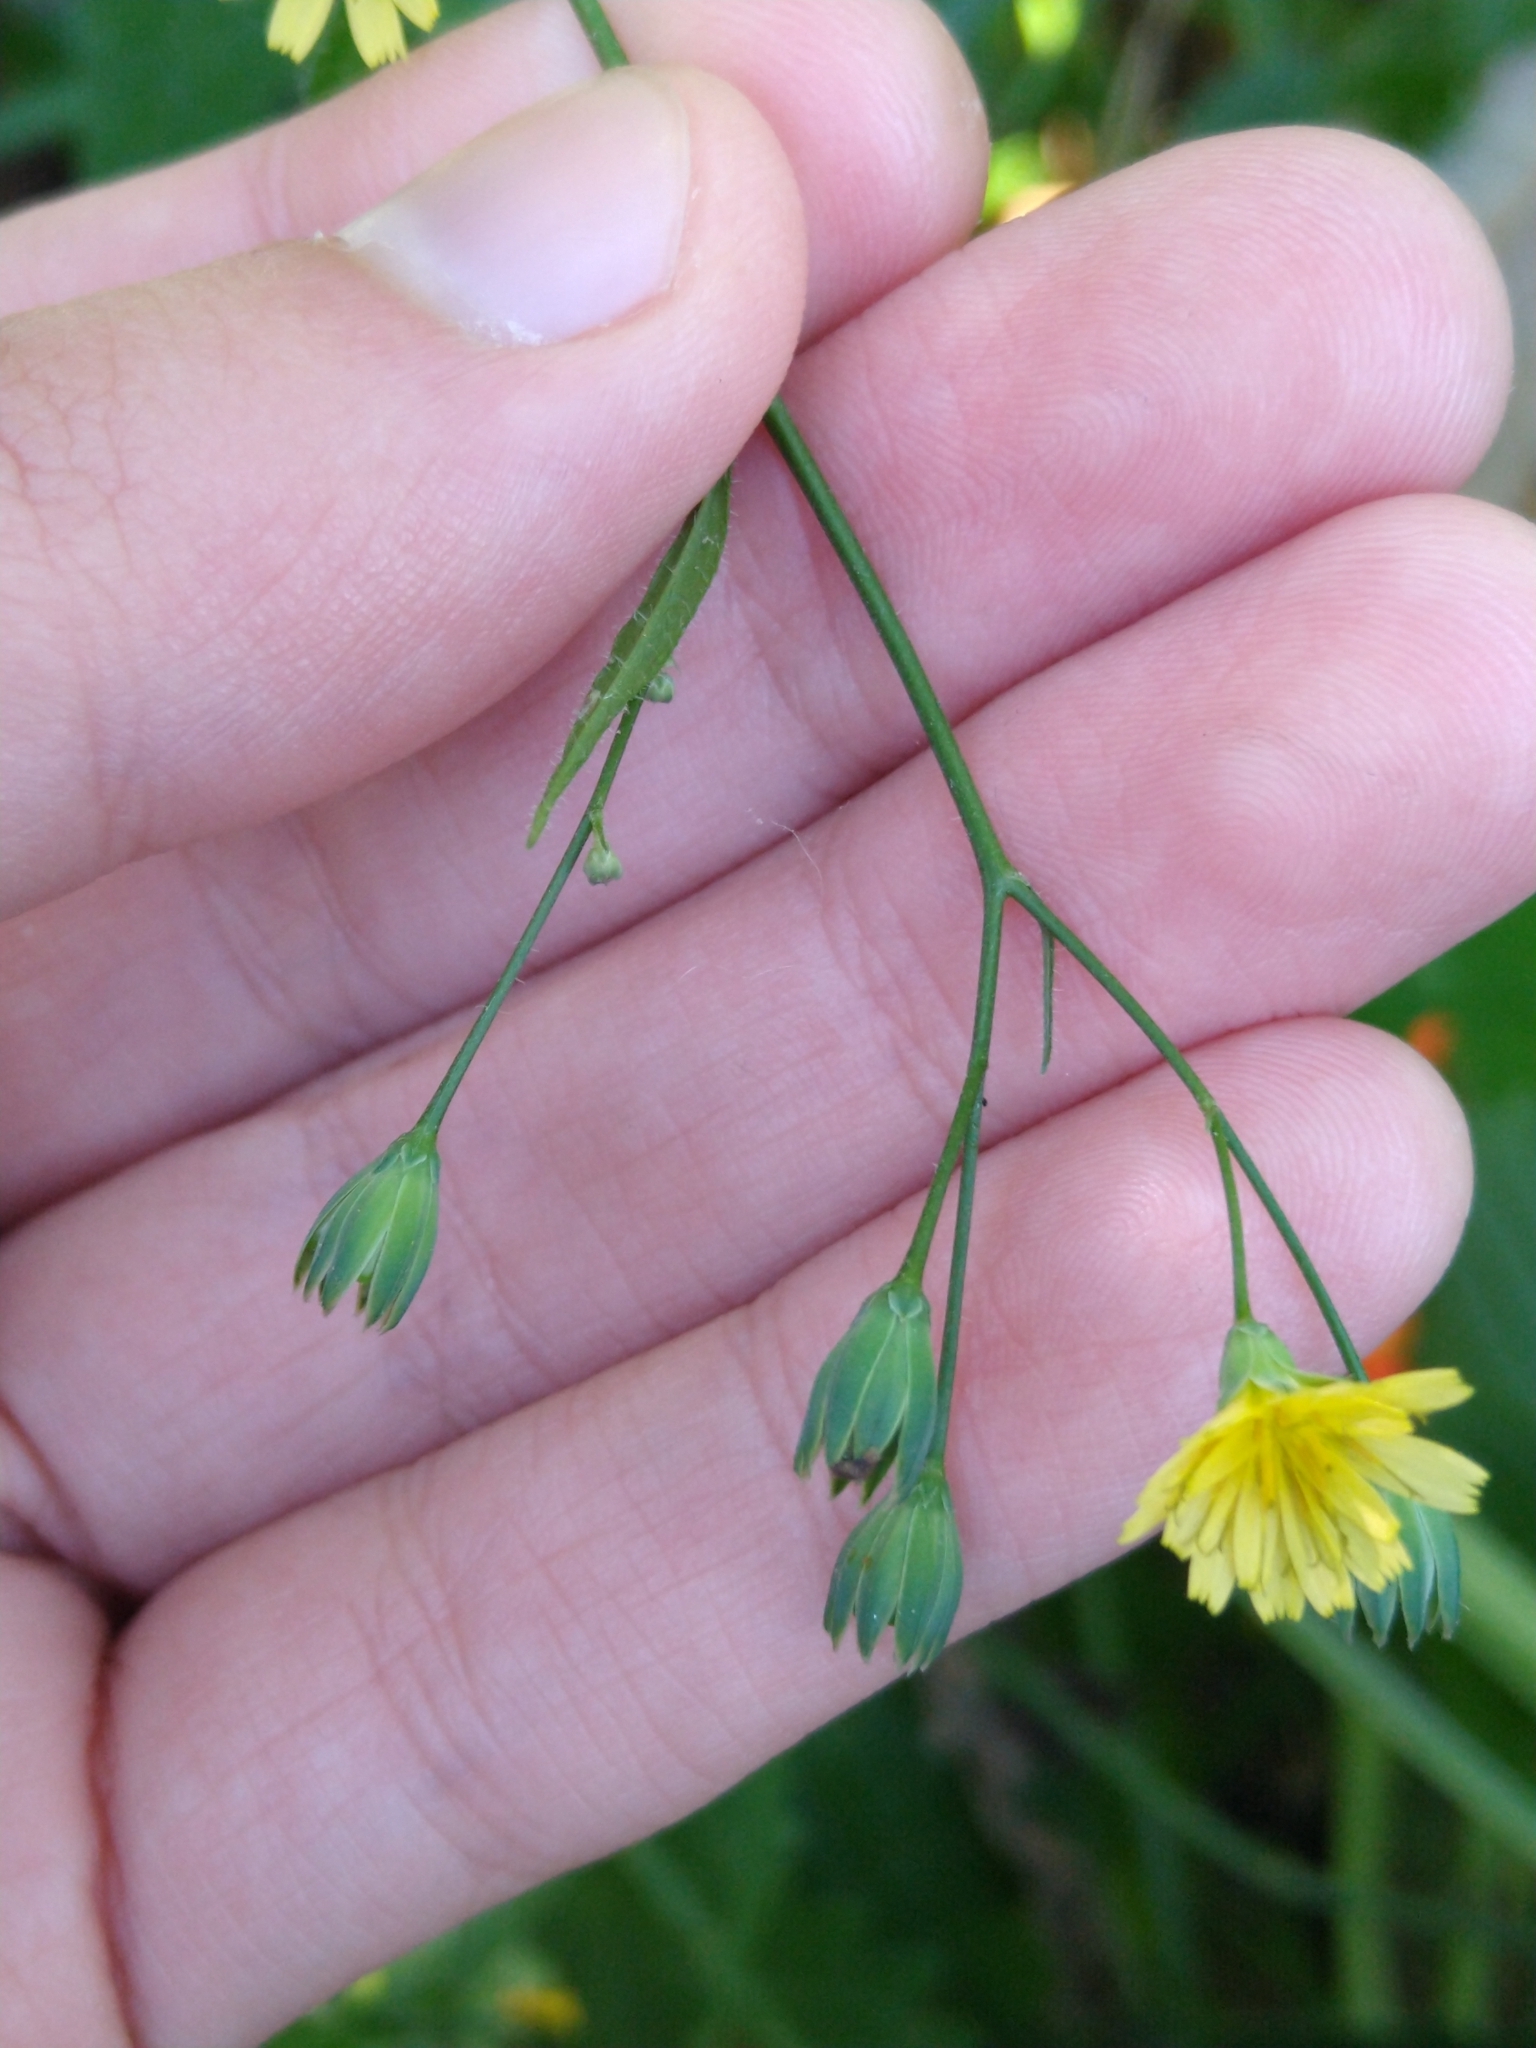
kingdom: Plantae
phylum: Tracheophyta
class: Magnoliopsida
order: Asterales
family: Asteraceae
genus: Lapsana
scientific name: Lapsana communis
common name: Nipplewort
